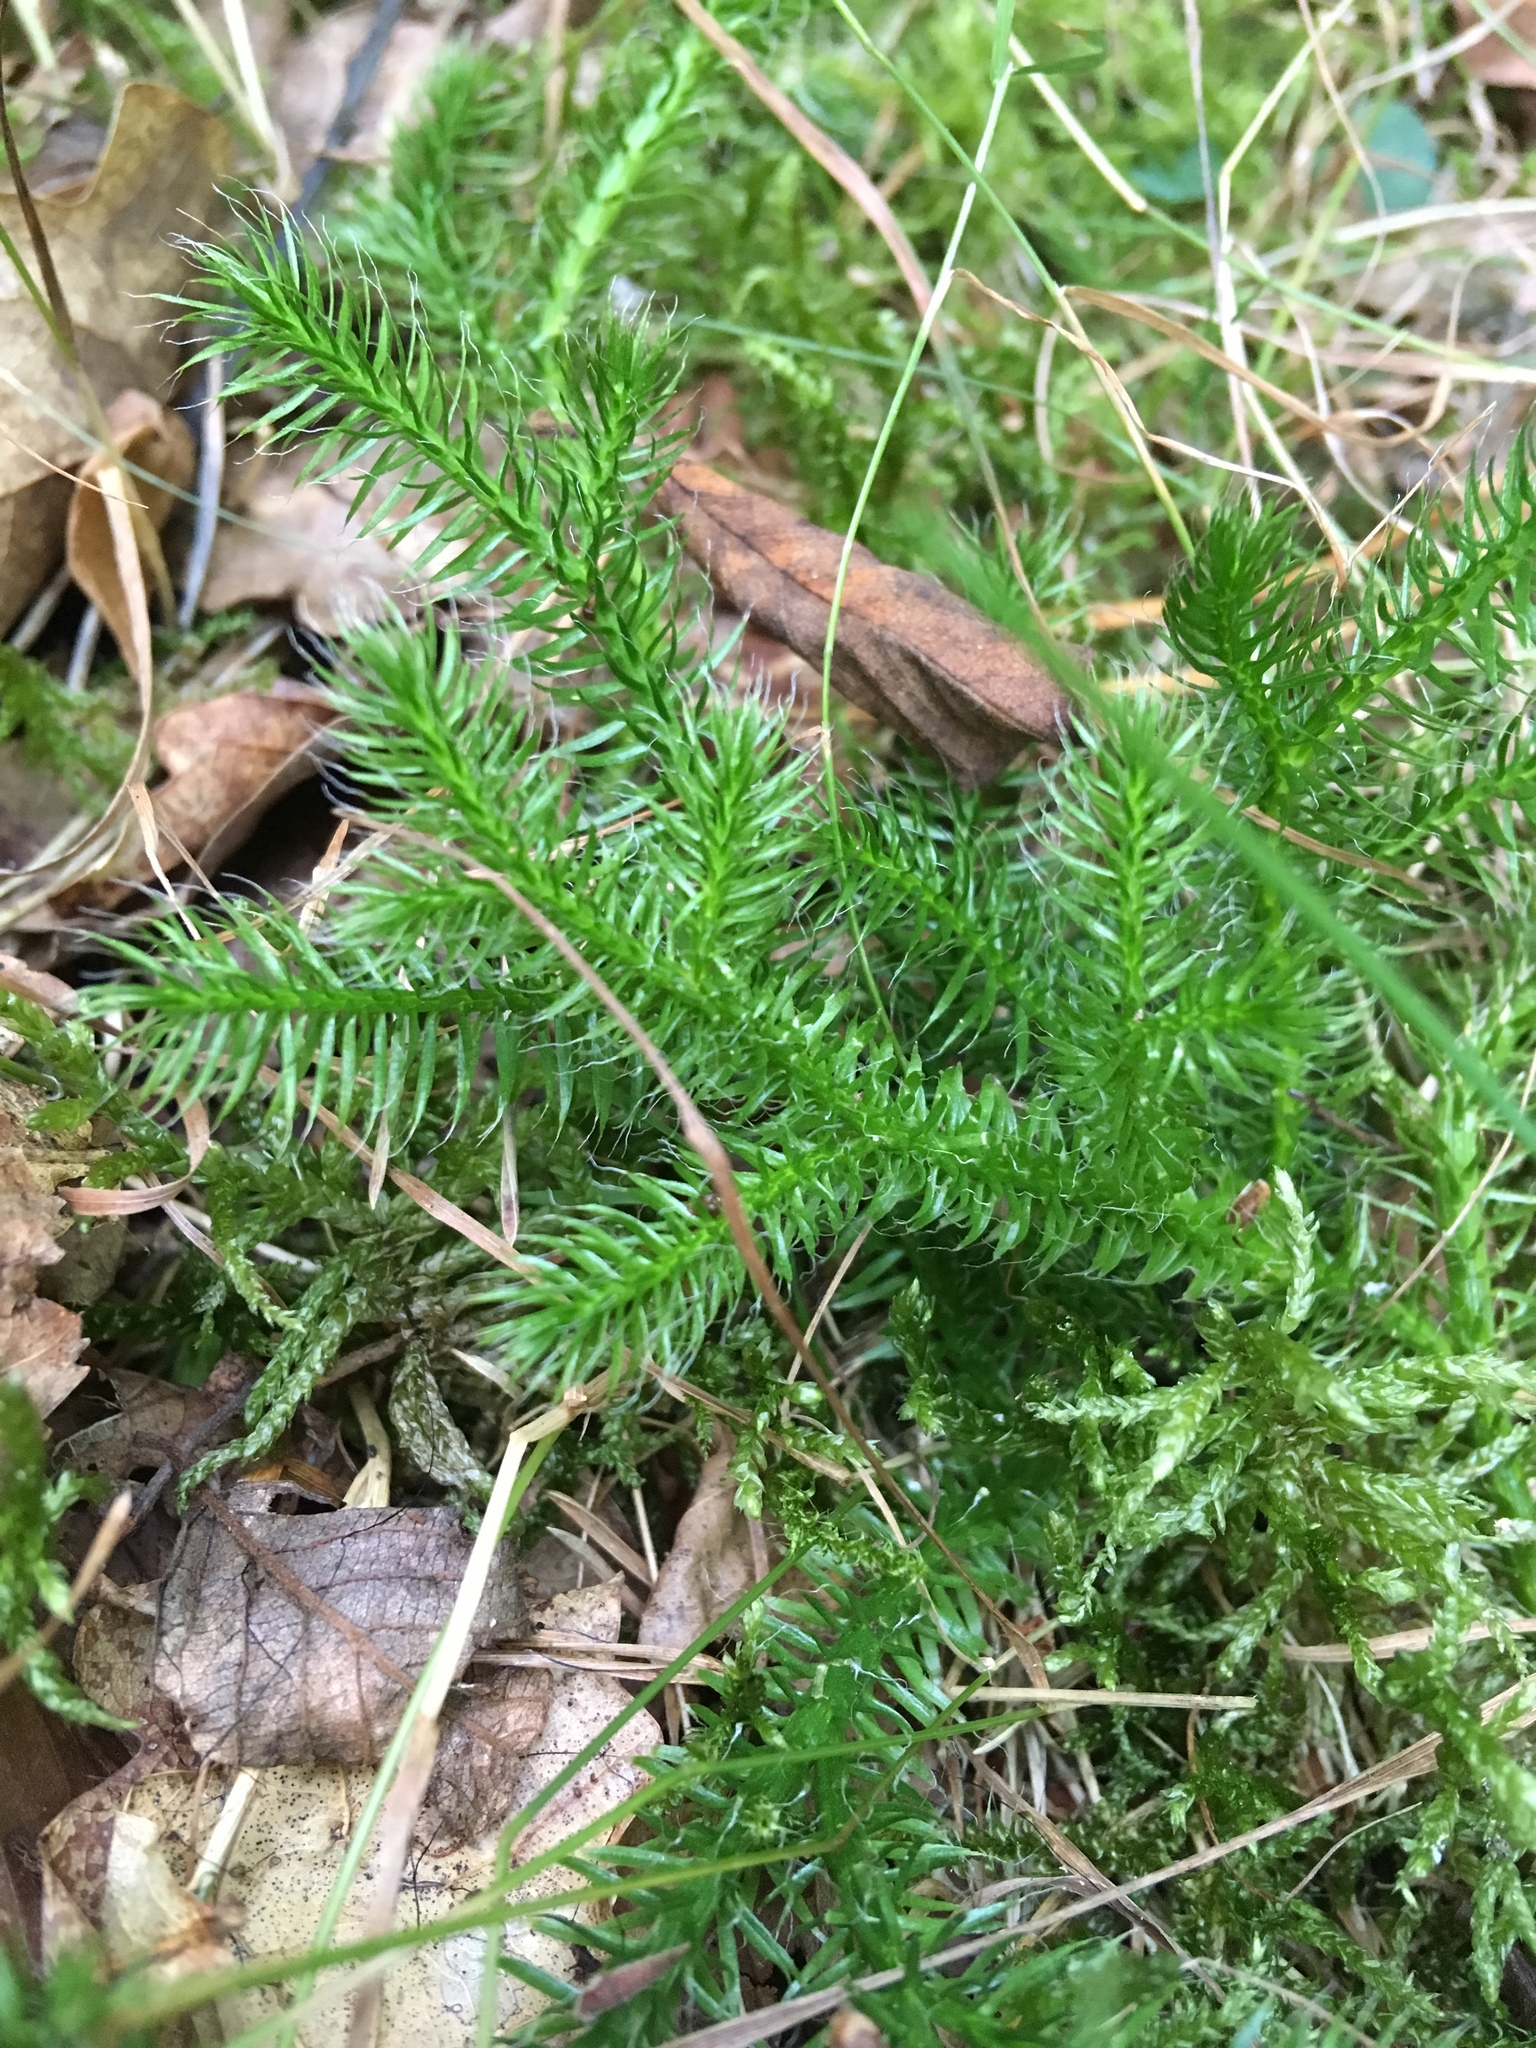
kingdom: Plantae
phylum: Tracheophyta
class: Lycopodiopsida
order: Lycopodiales
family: Lycopodiaceae
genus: Lycopodium
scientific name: Lycopodium clavatum
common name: Stag's-horn clubmoss
